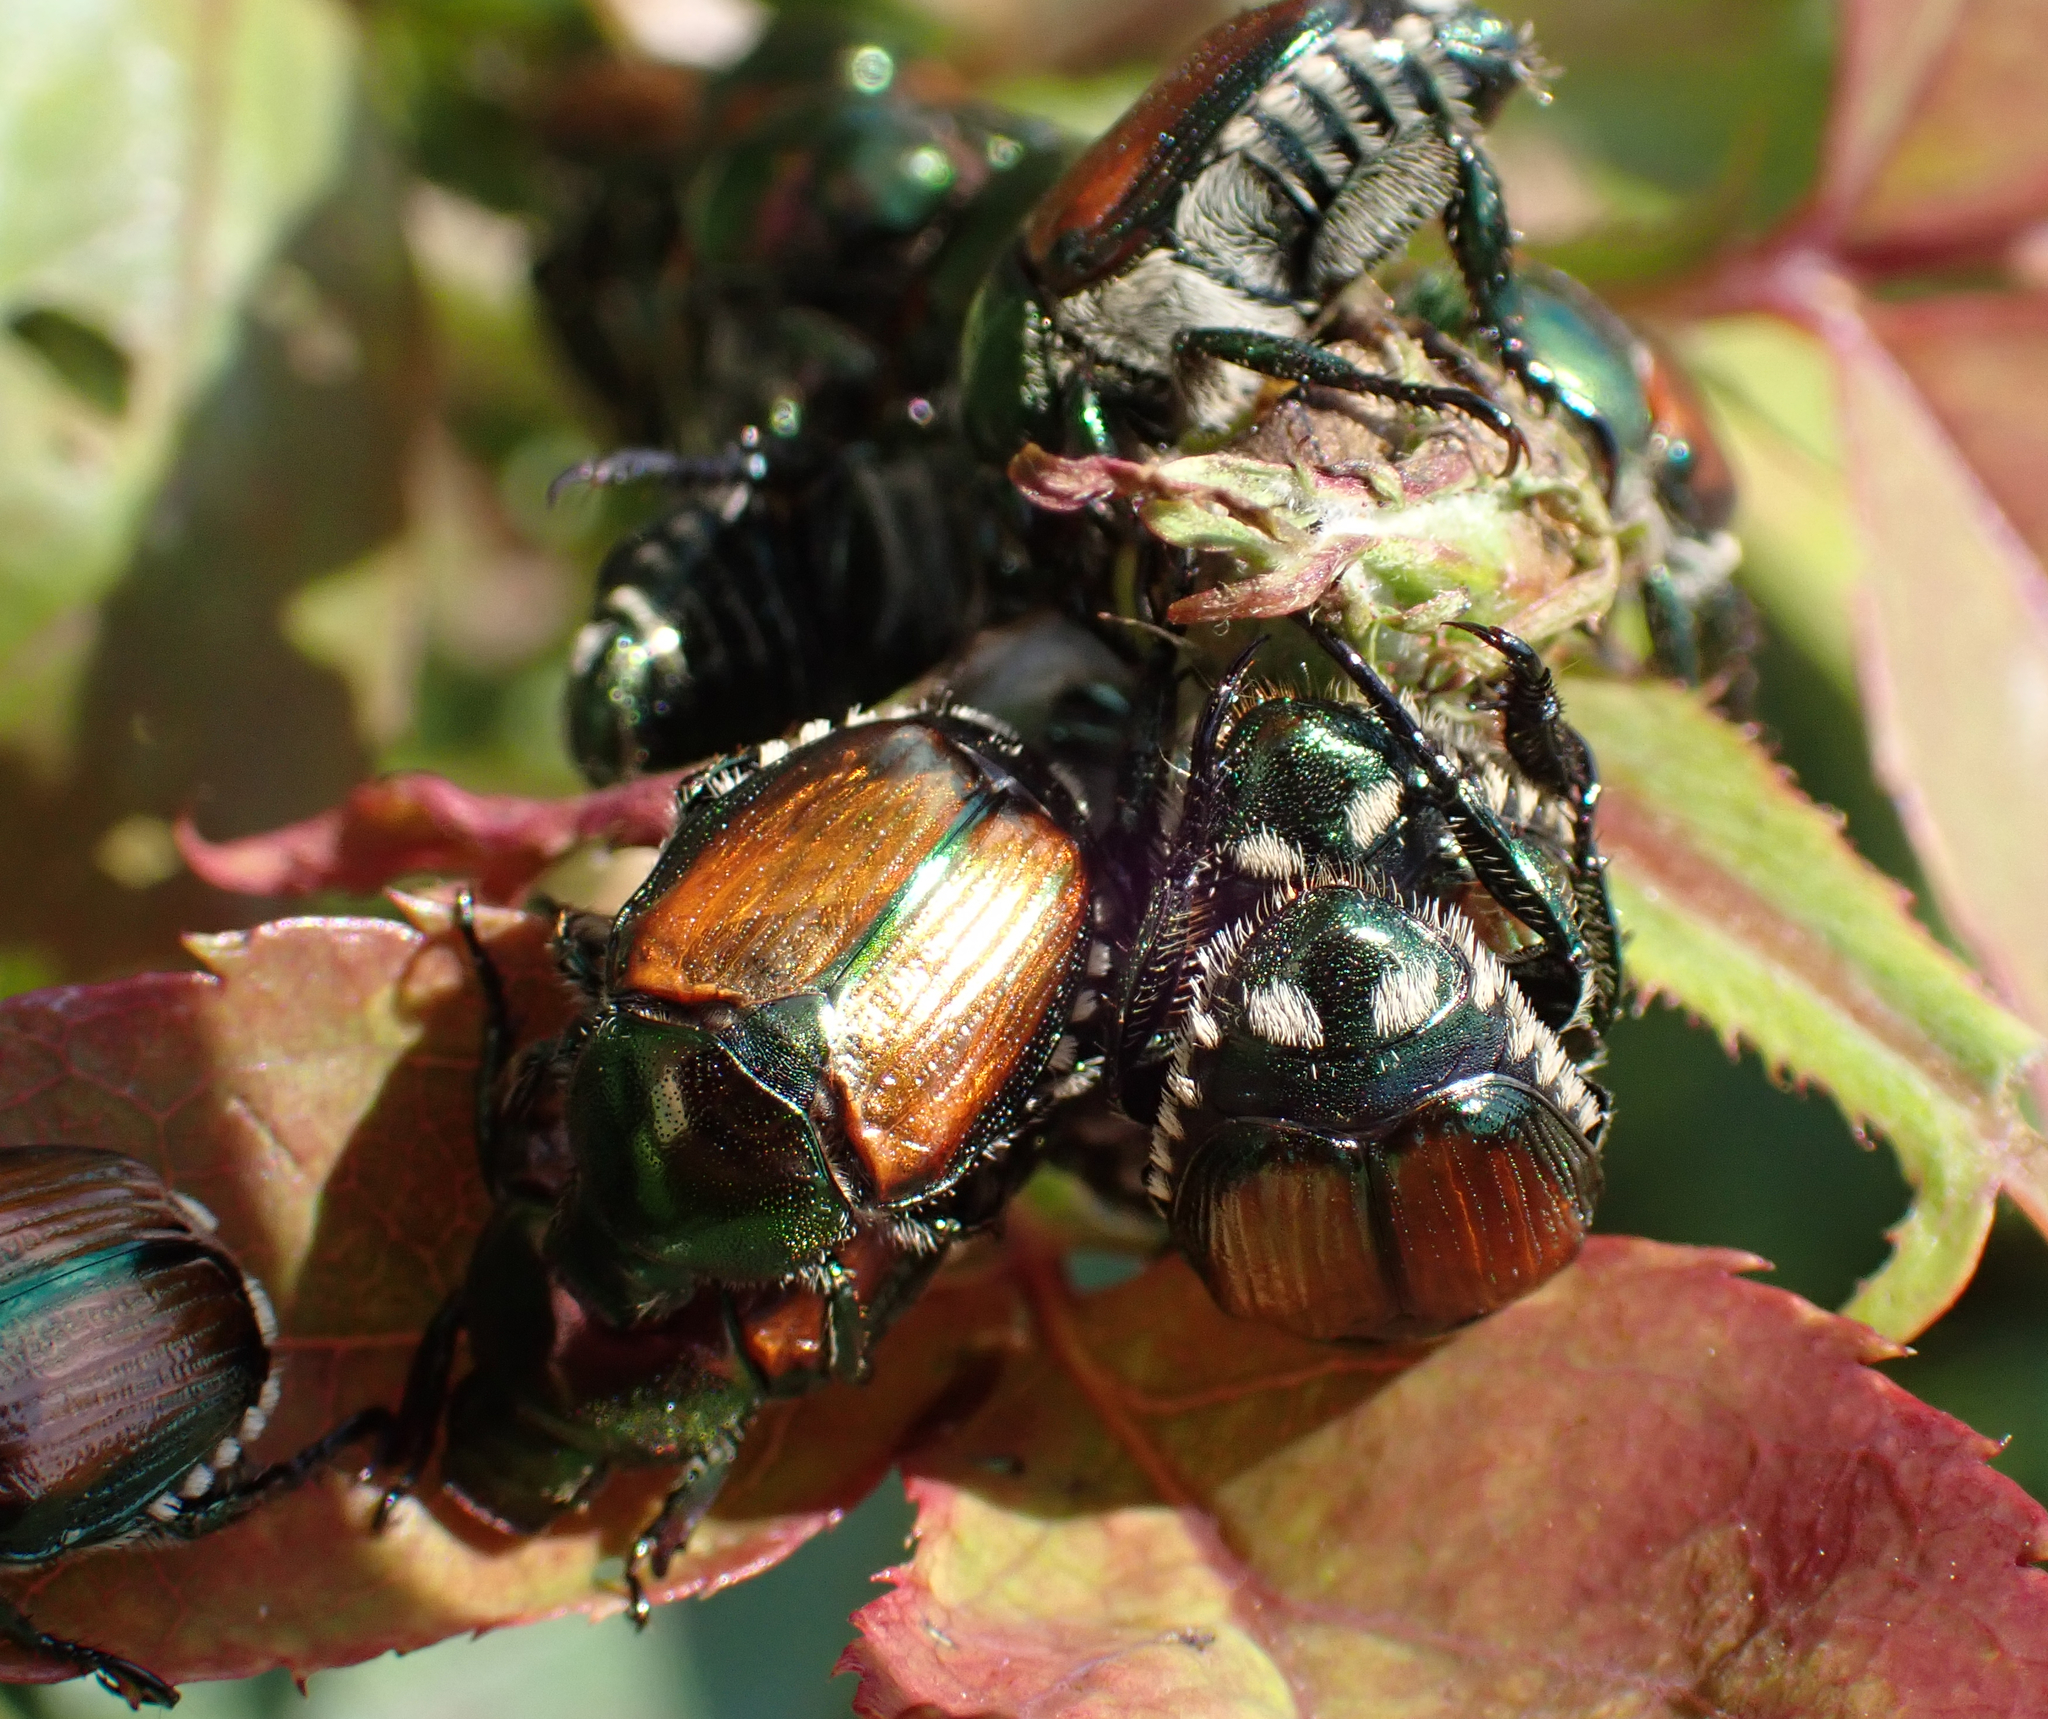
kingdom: Animalia
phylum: Arthropoda
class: Insecta
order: Coleoptera
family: Scarabaeidae
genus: Popillia
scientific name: Popillia japonica
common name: Japanese beetle
